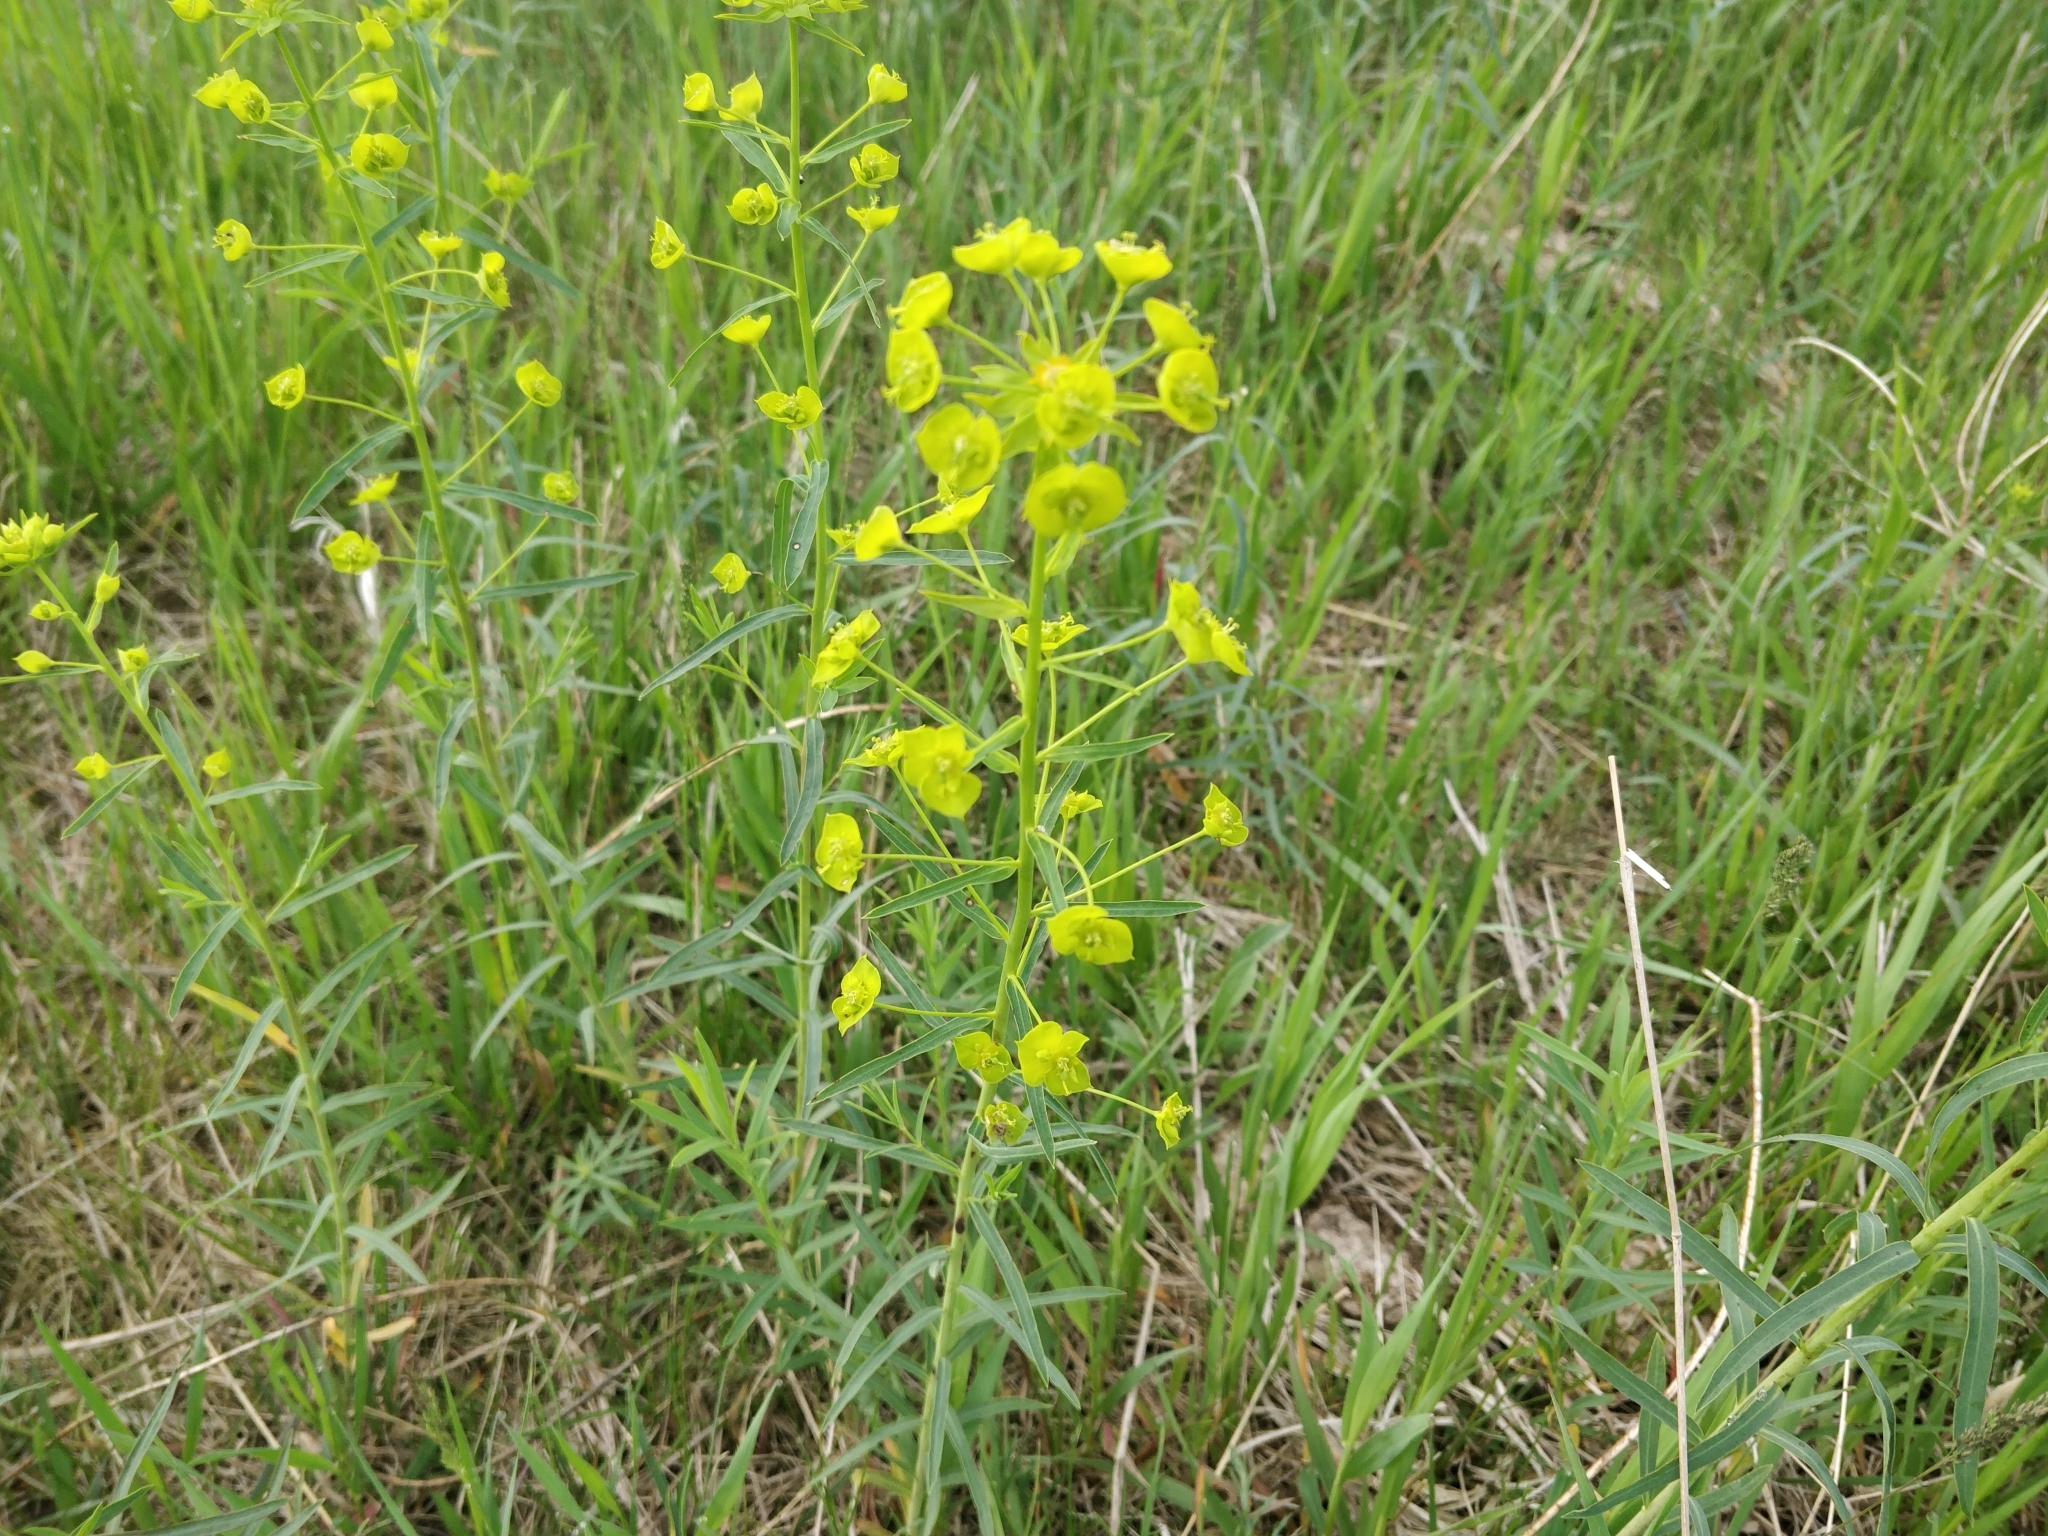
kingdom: Plantae
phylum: Tracheophyta
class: Magnoliopsida
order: Malpighiales
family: Euphorbiaceae
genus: Euphorbia
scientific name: Euphorbia virgata
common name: Leafy spurge
